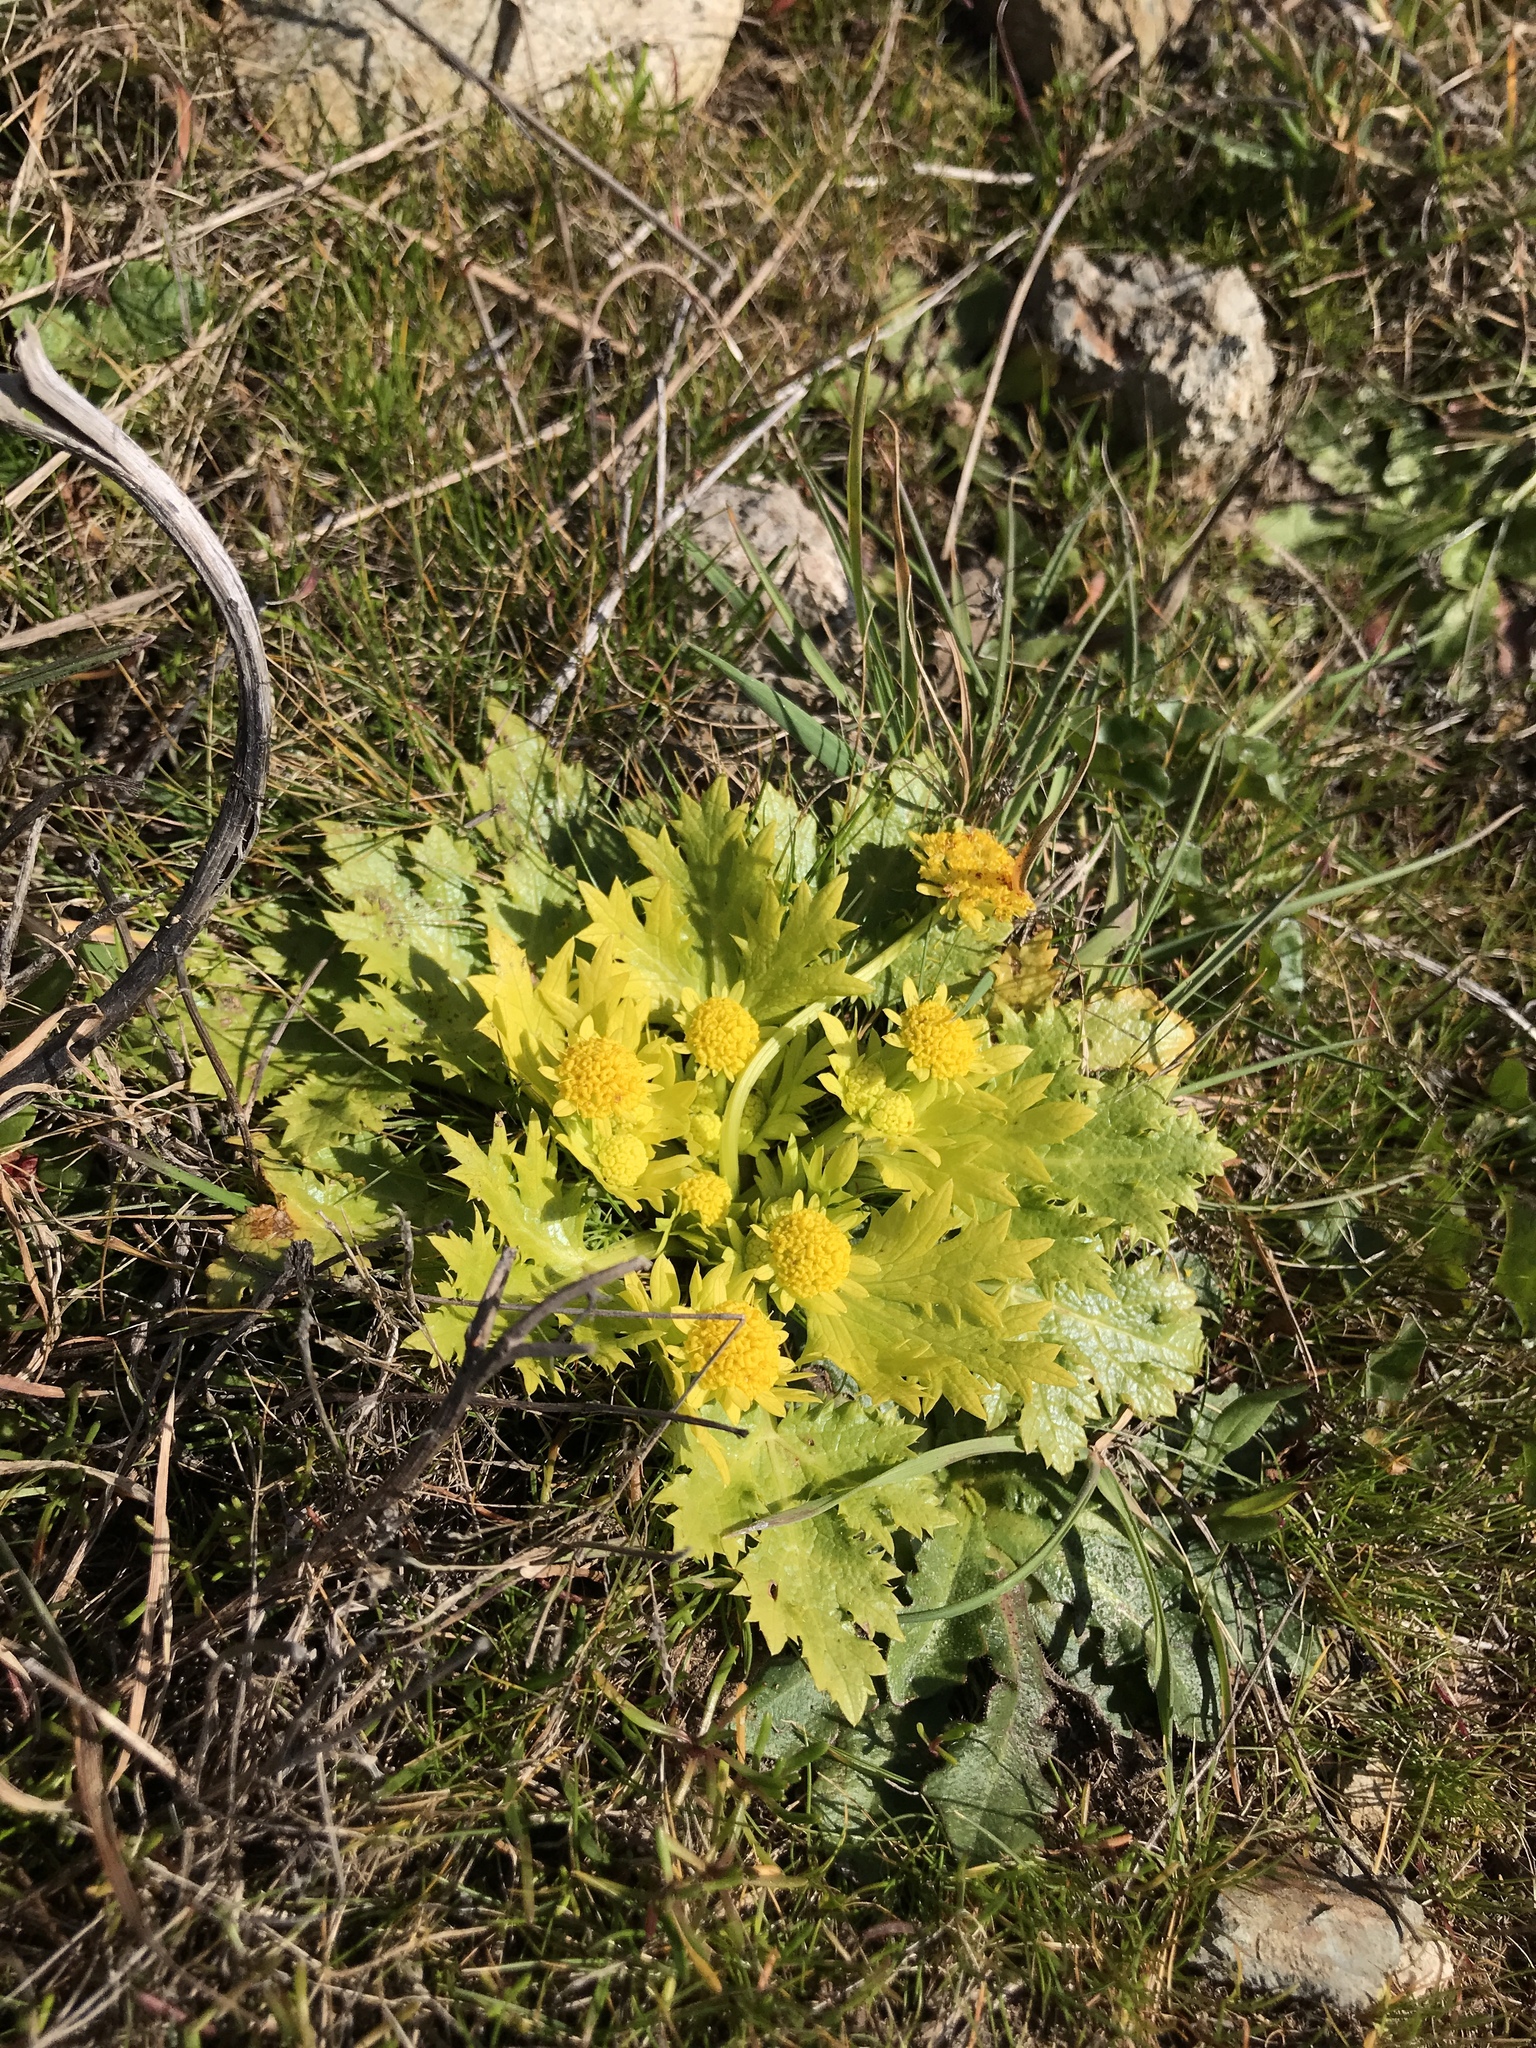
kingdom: Plantae
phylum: Tracheophyta
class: Magnoliopsida
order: Apiales
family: Apiaceae
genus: Sanicula
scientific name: Sanicula arctopoides
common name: Footsteps-of-spring
